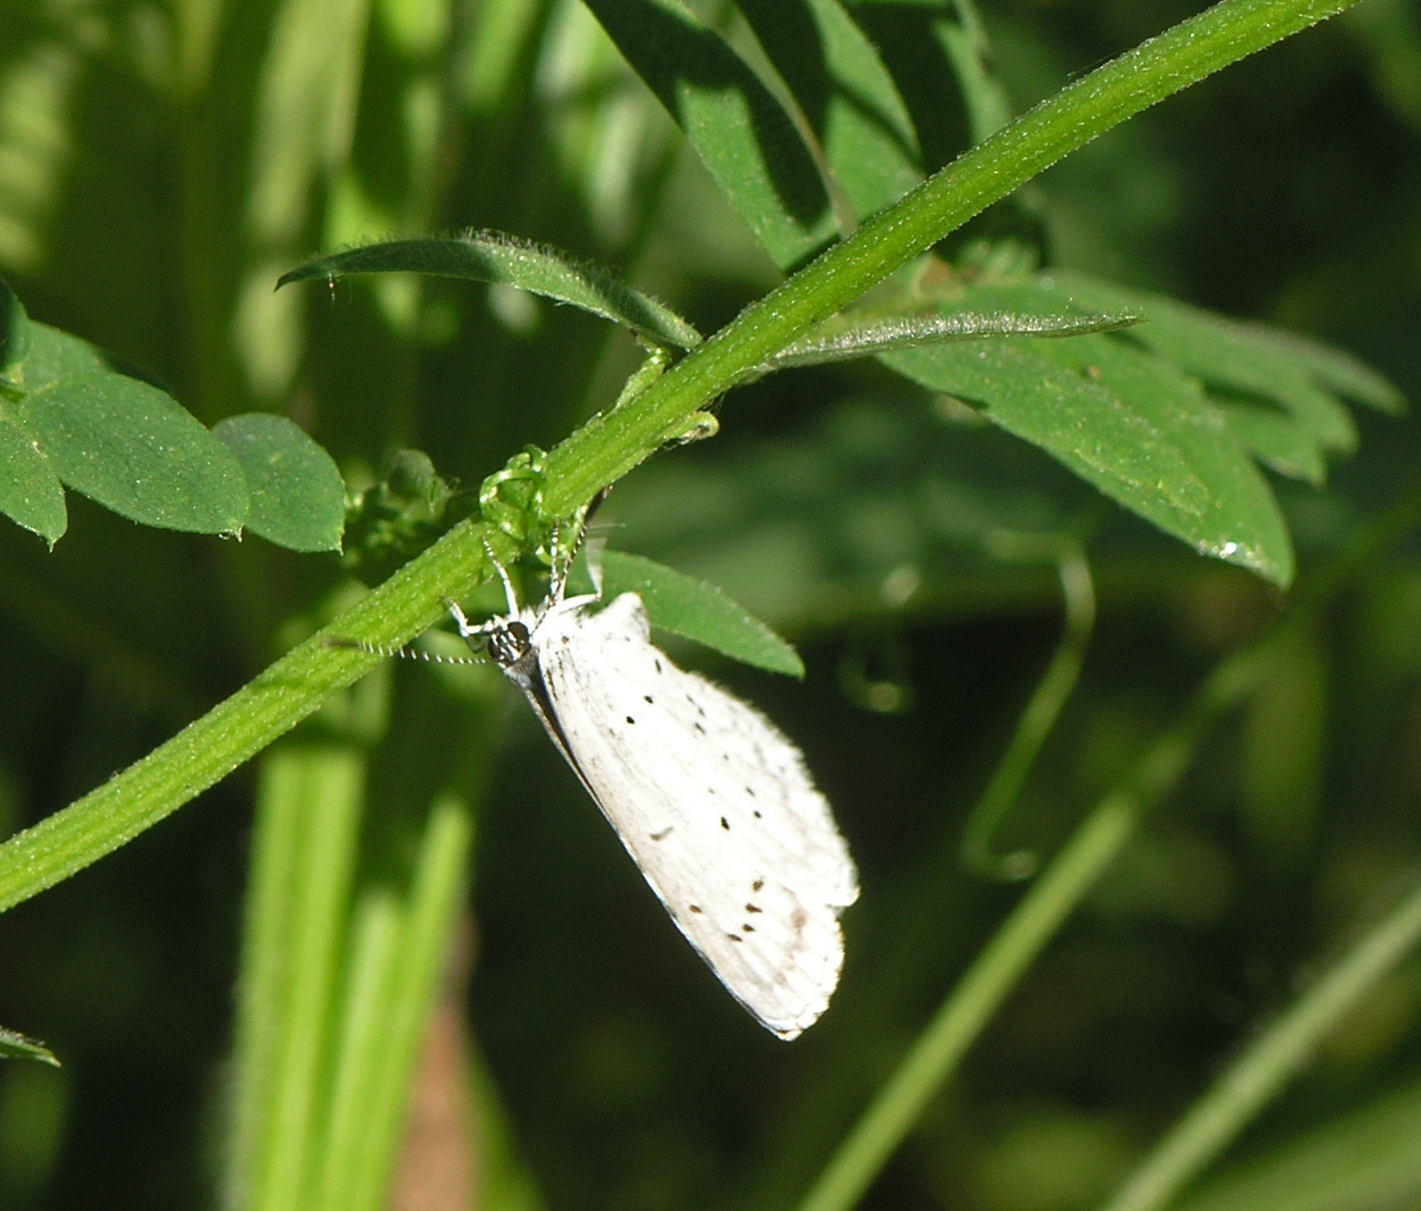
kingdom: Animalia
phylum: Arthropoda
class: Insecta
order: Lepidoptera
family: Lycaenidae
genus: Celastrina
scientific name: Celastrina argiolus
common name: Holly blue
